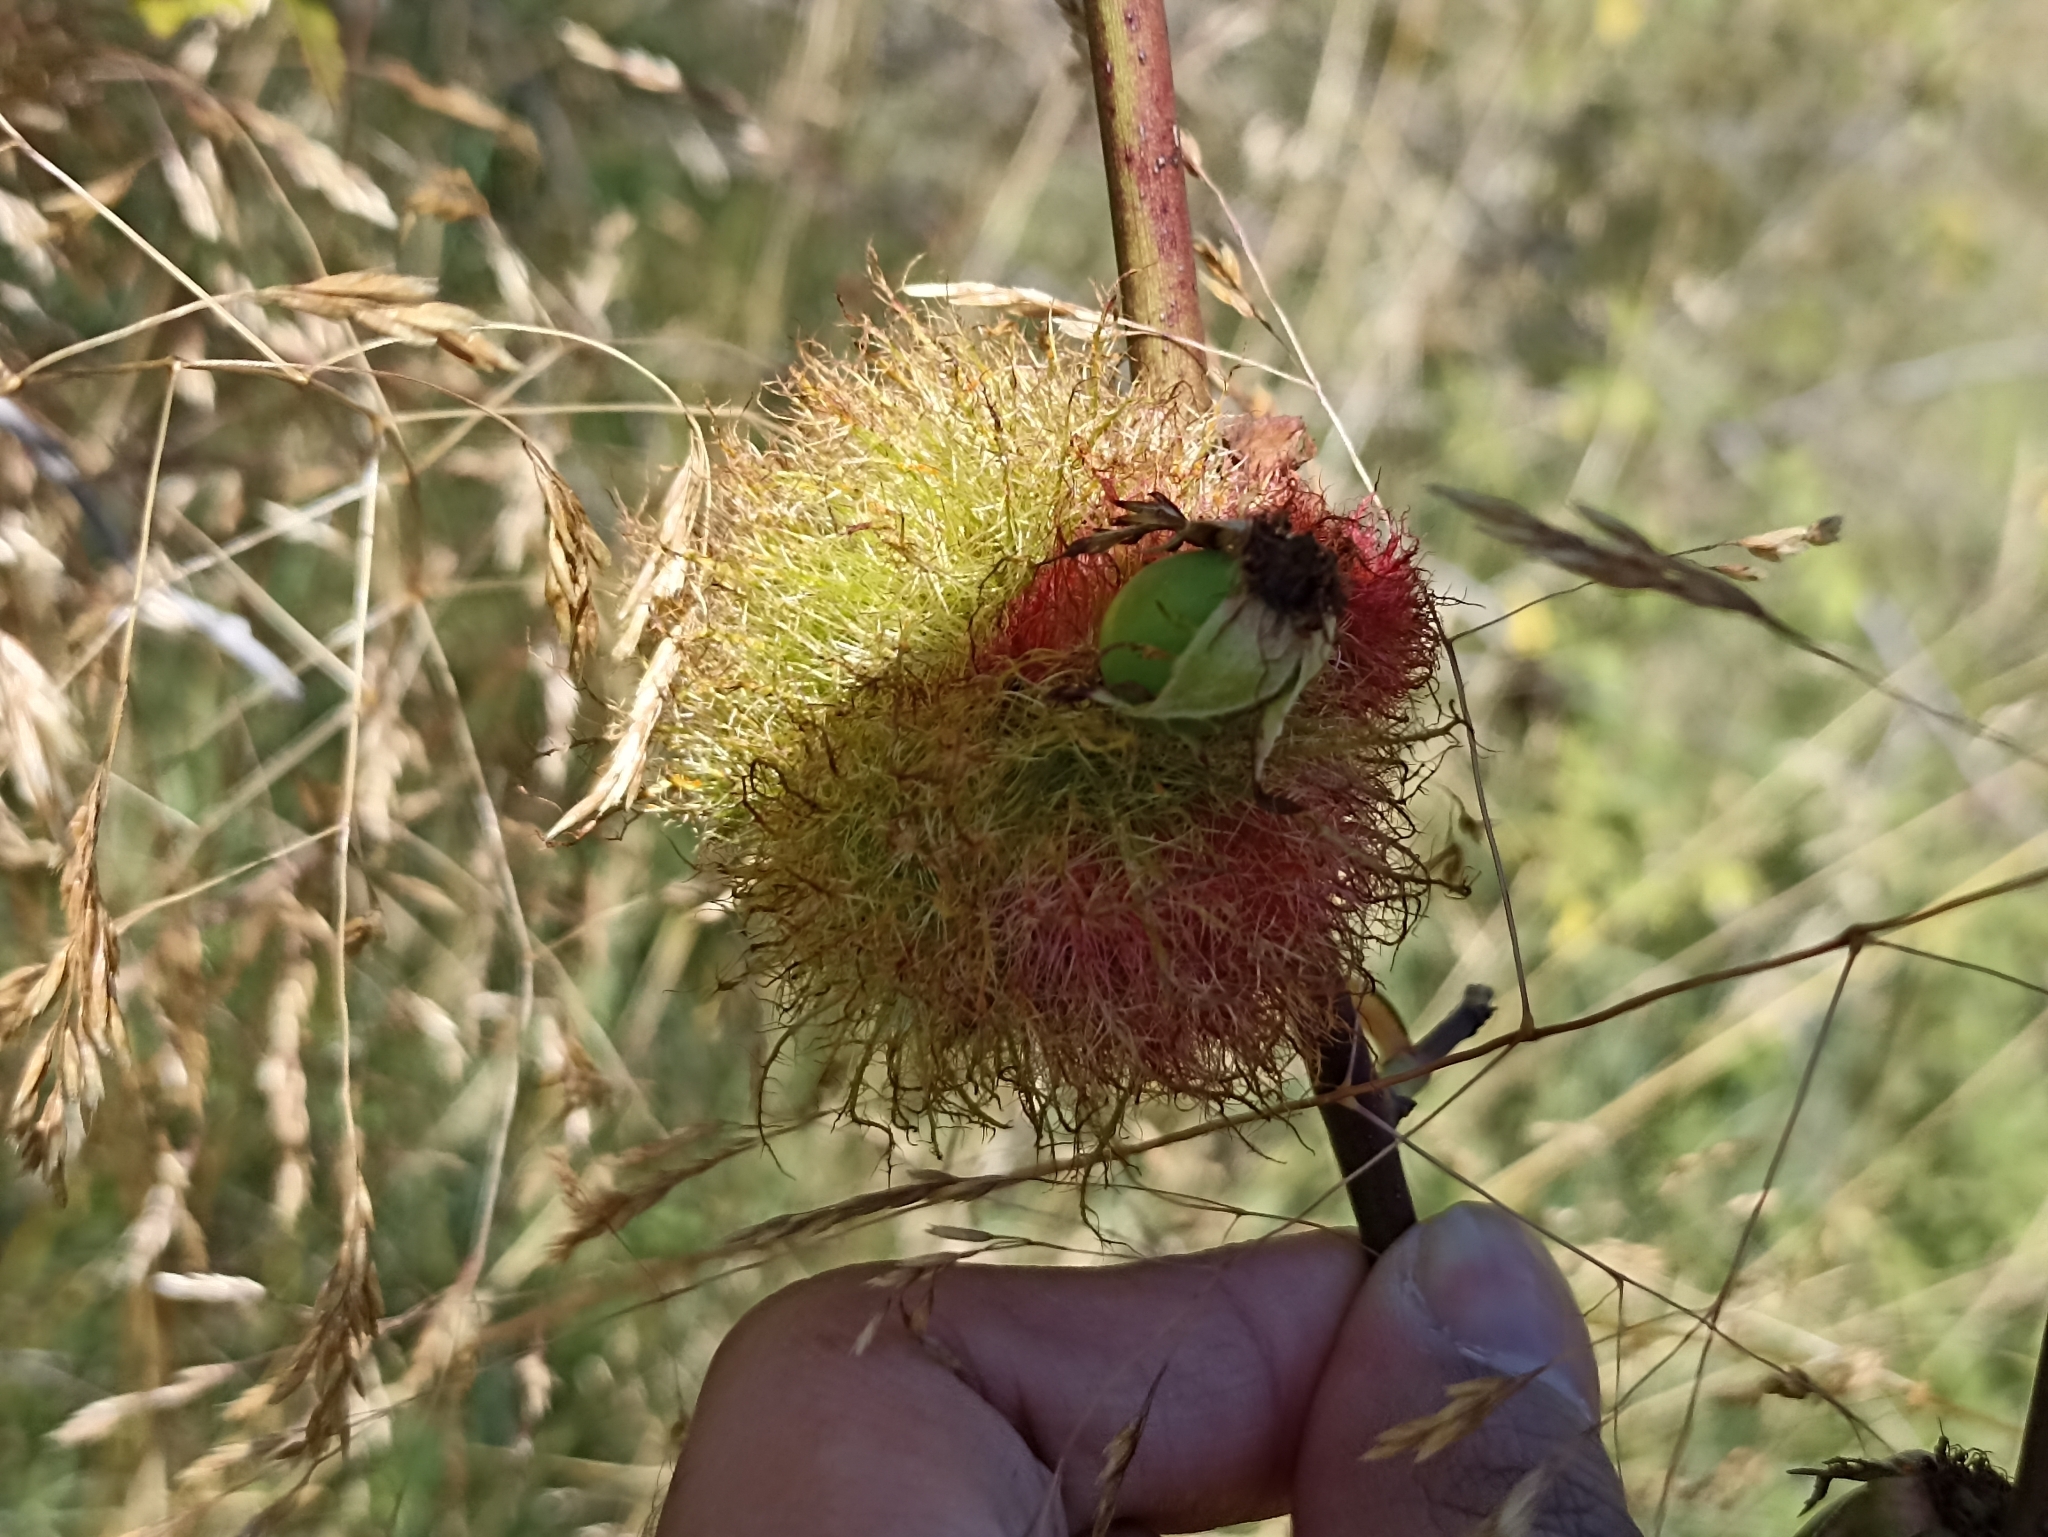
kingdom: Animalia
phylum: Arthropoda
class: Insecta
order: Hymenoptera
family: Cynipidae
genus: Diplolepis
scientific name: Diplolepis rosae
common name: Bedeguar gall
